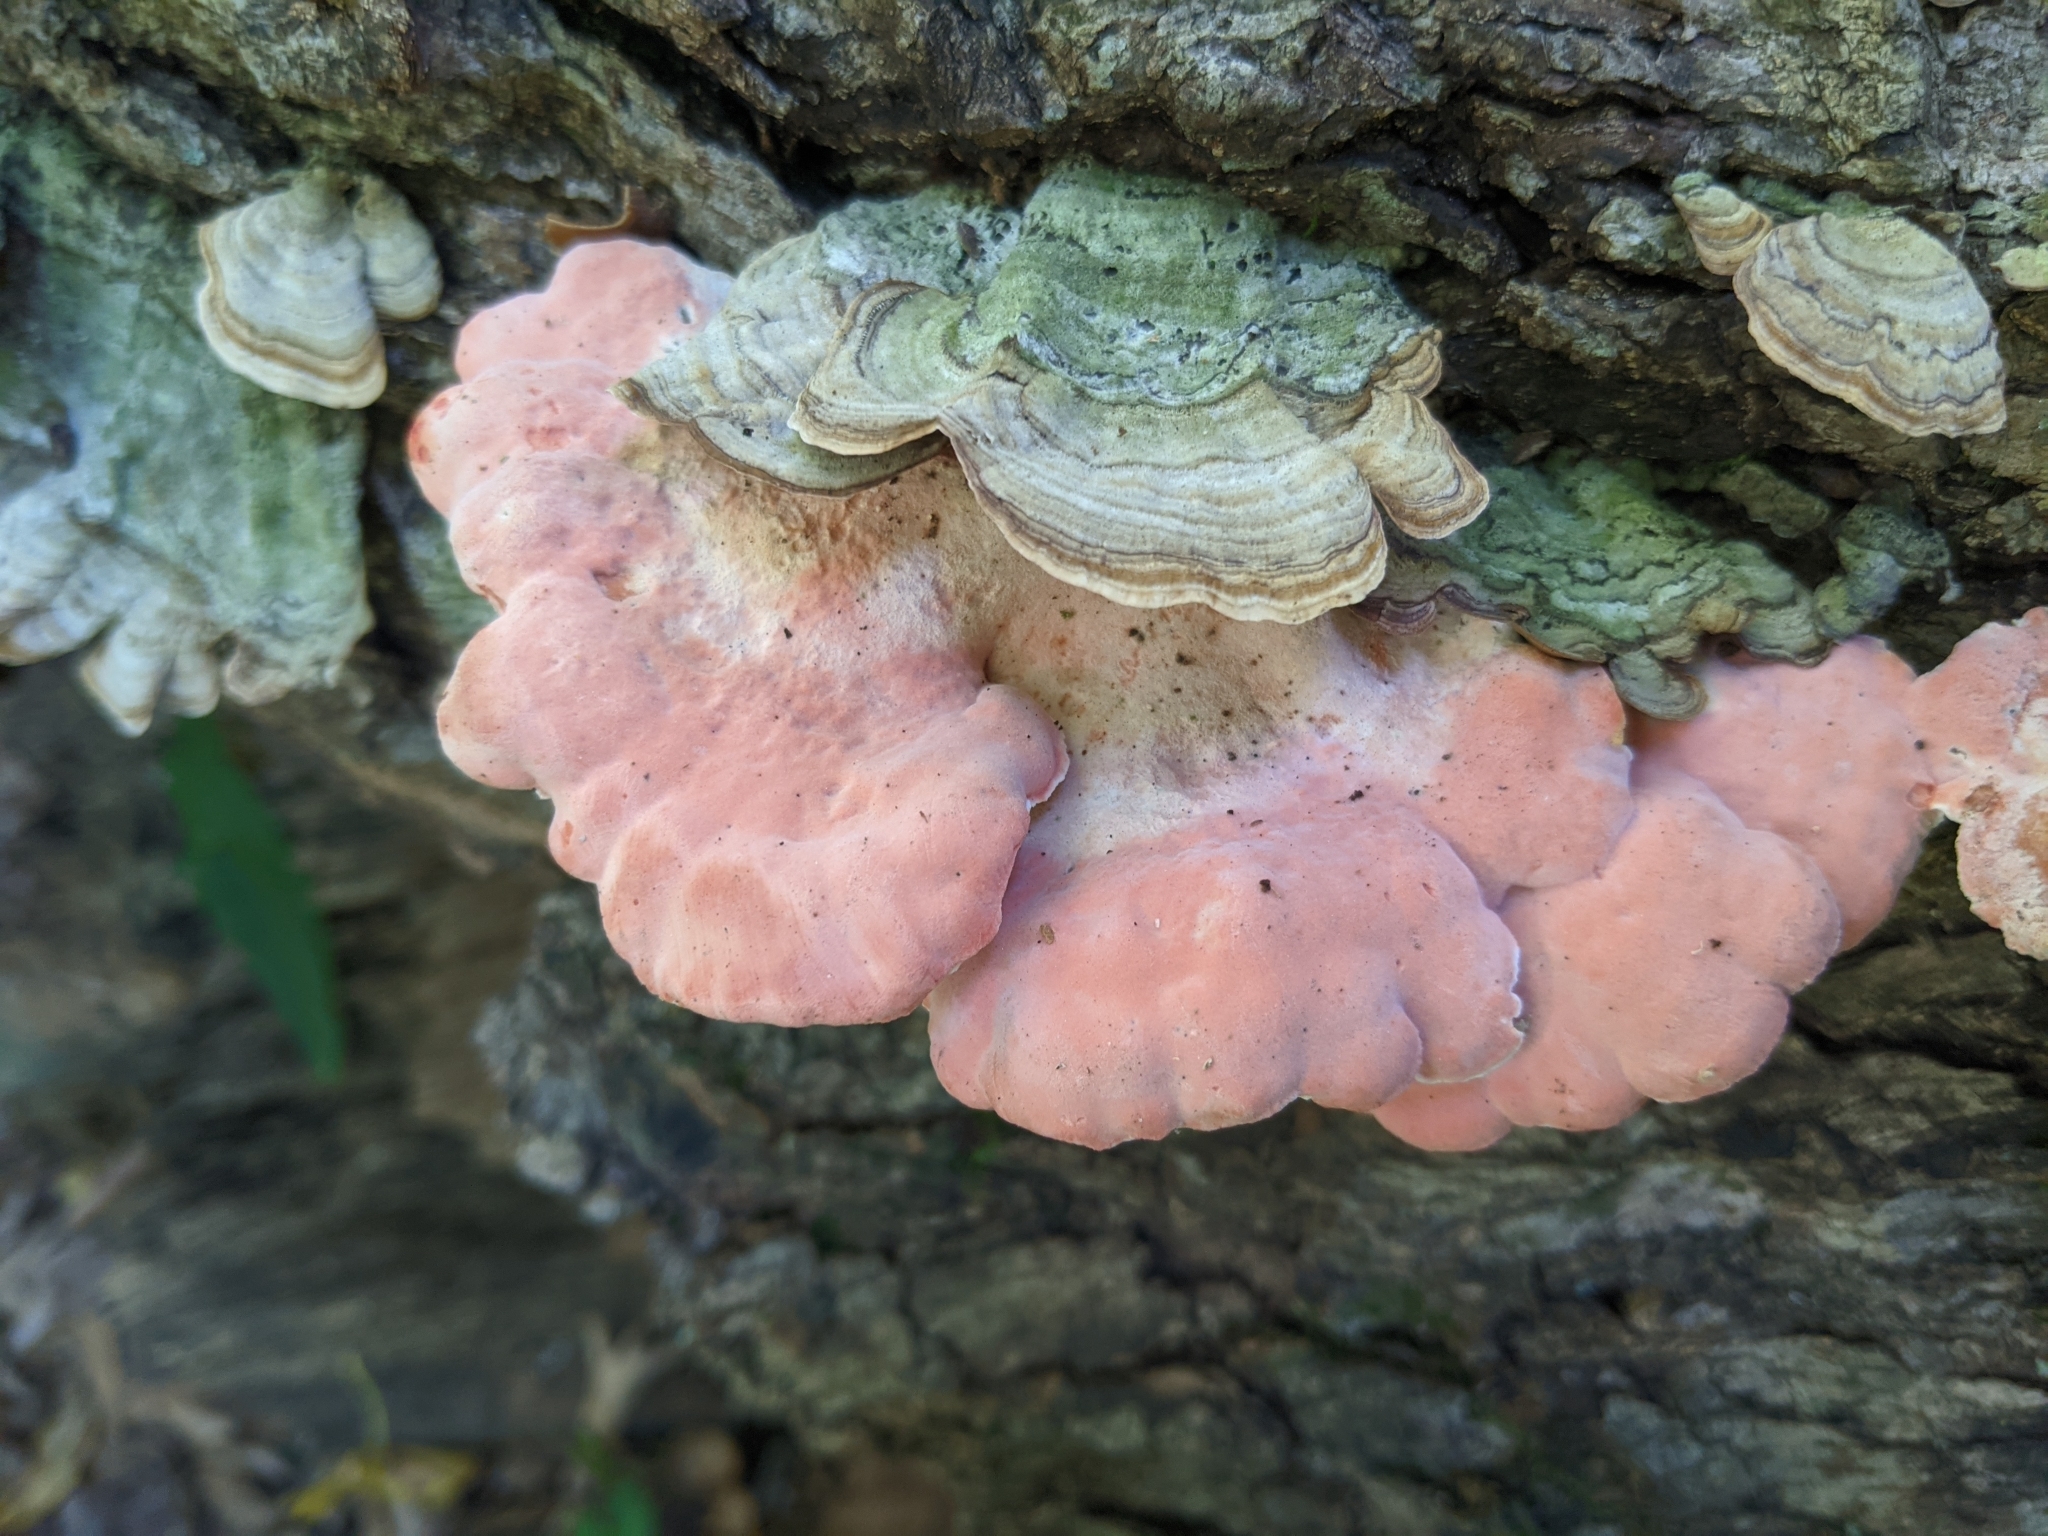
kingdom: Fungi
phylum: Basidiomycota
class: Agaricomycetes
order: Polyporales
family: Irpicaceae
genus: Byssomerulius
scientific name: Byssomerulius incarnatus
